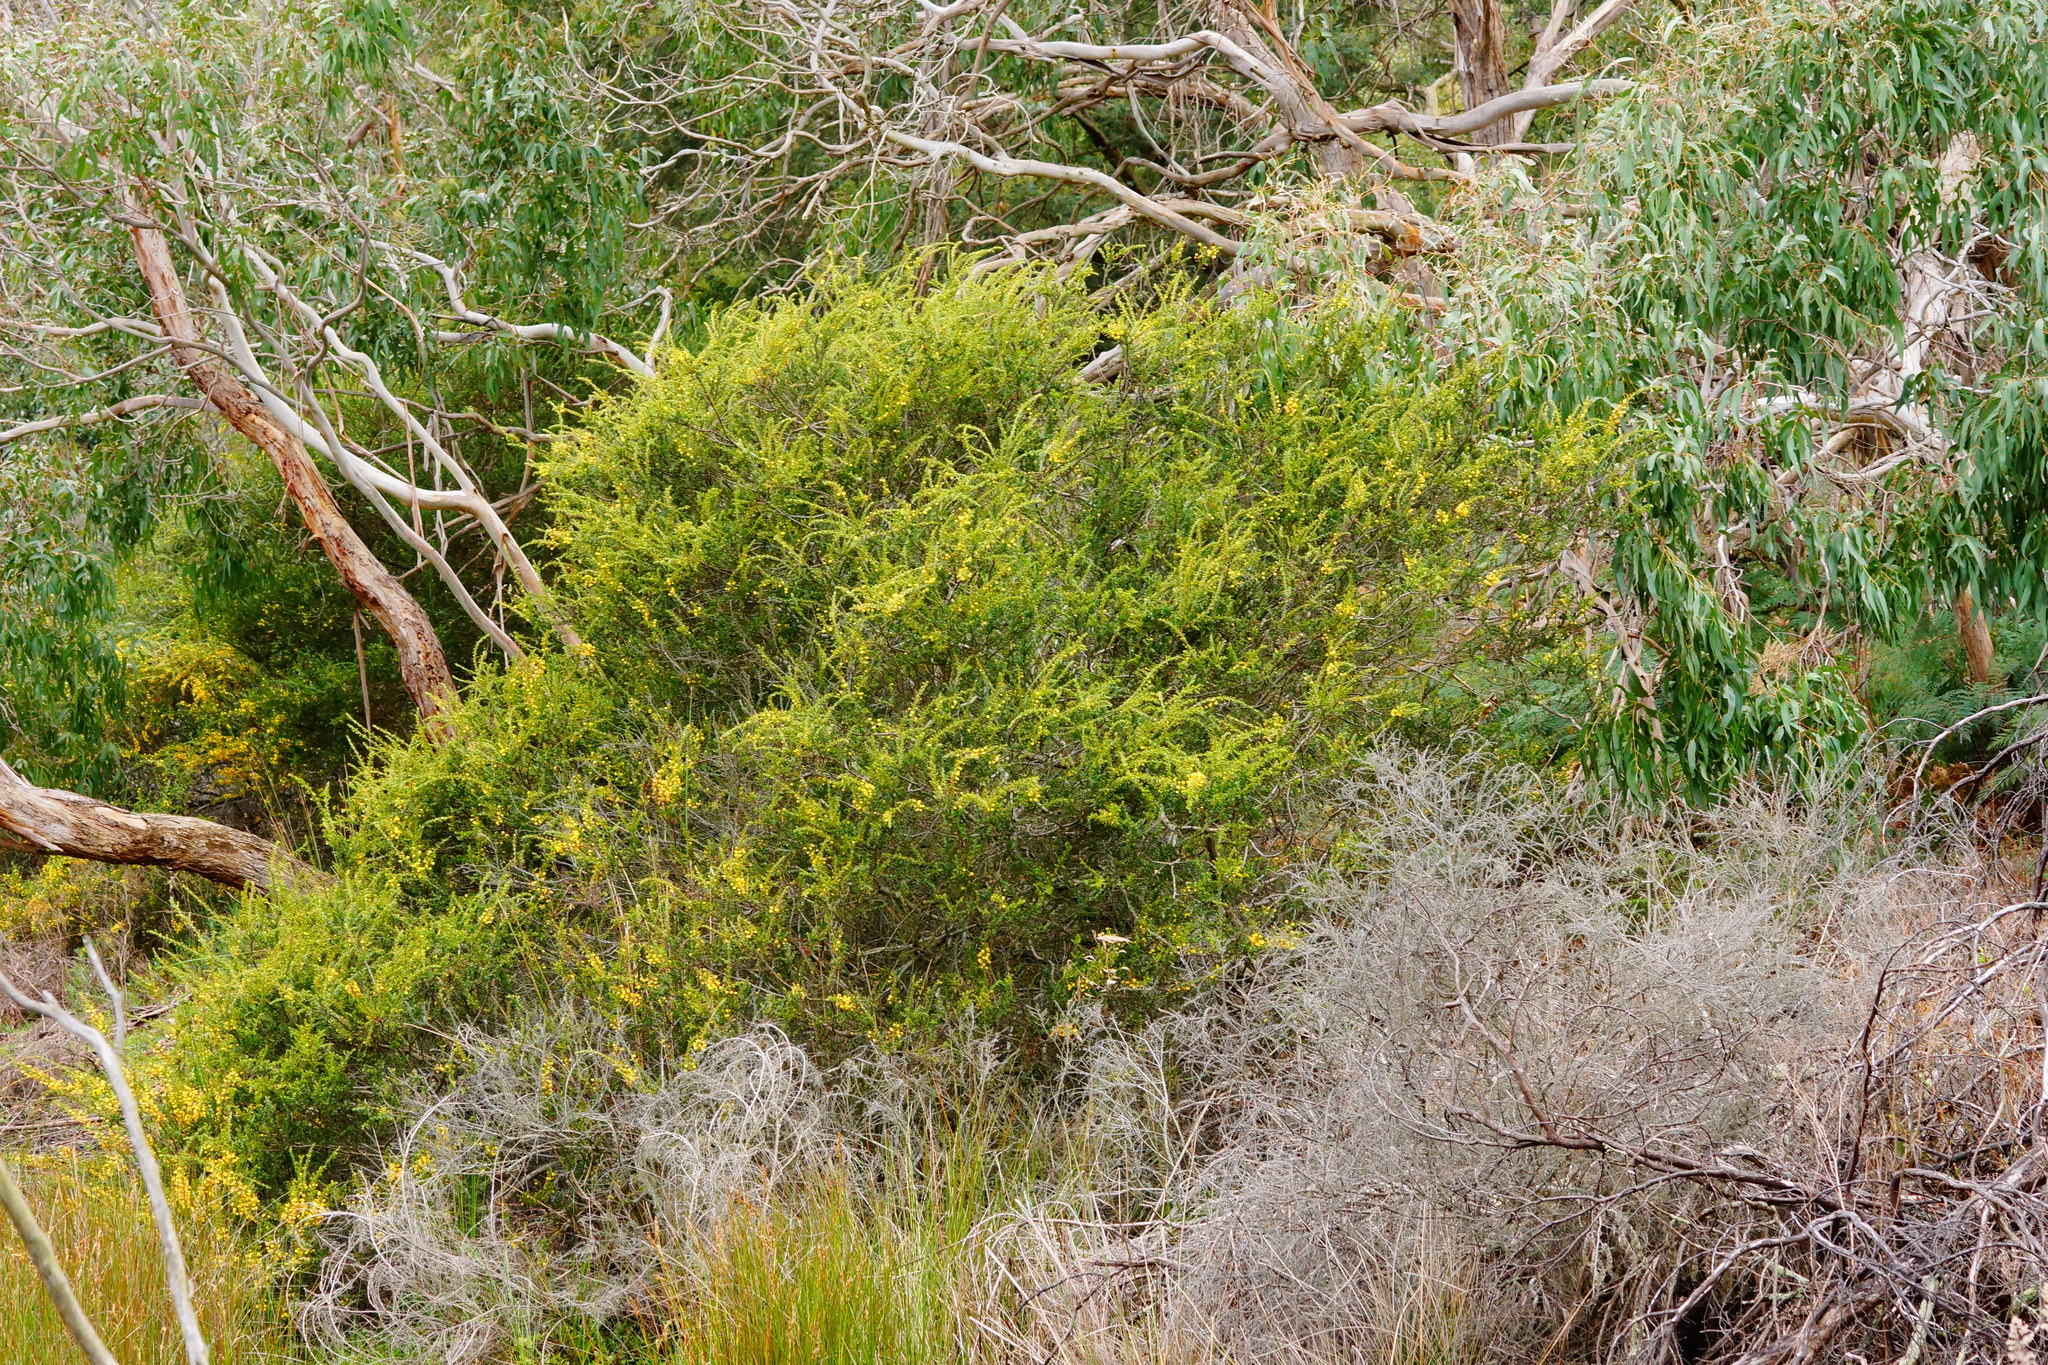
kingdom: Plantae
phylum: Tracheophyta
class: Magnoliopsida
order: Fabales
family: Fabaceae
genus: Acacia
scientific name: Acacia paradoxa
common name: Paradox acacia
